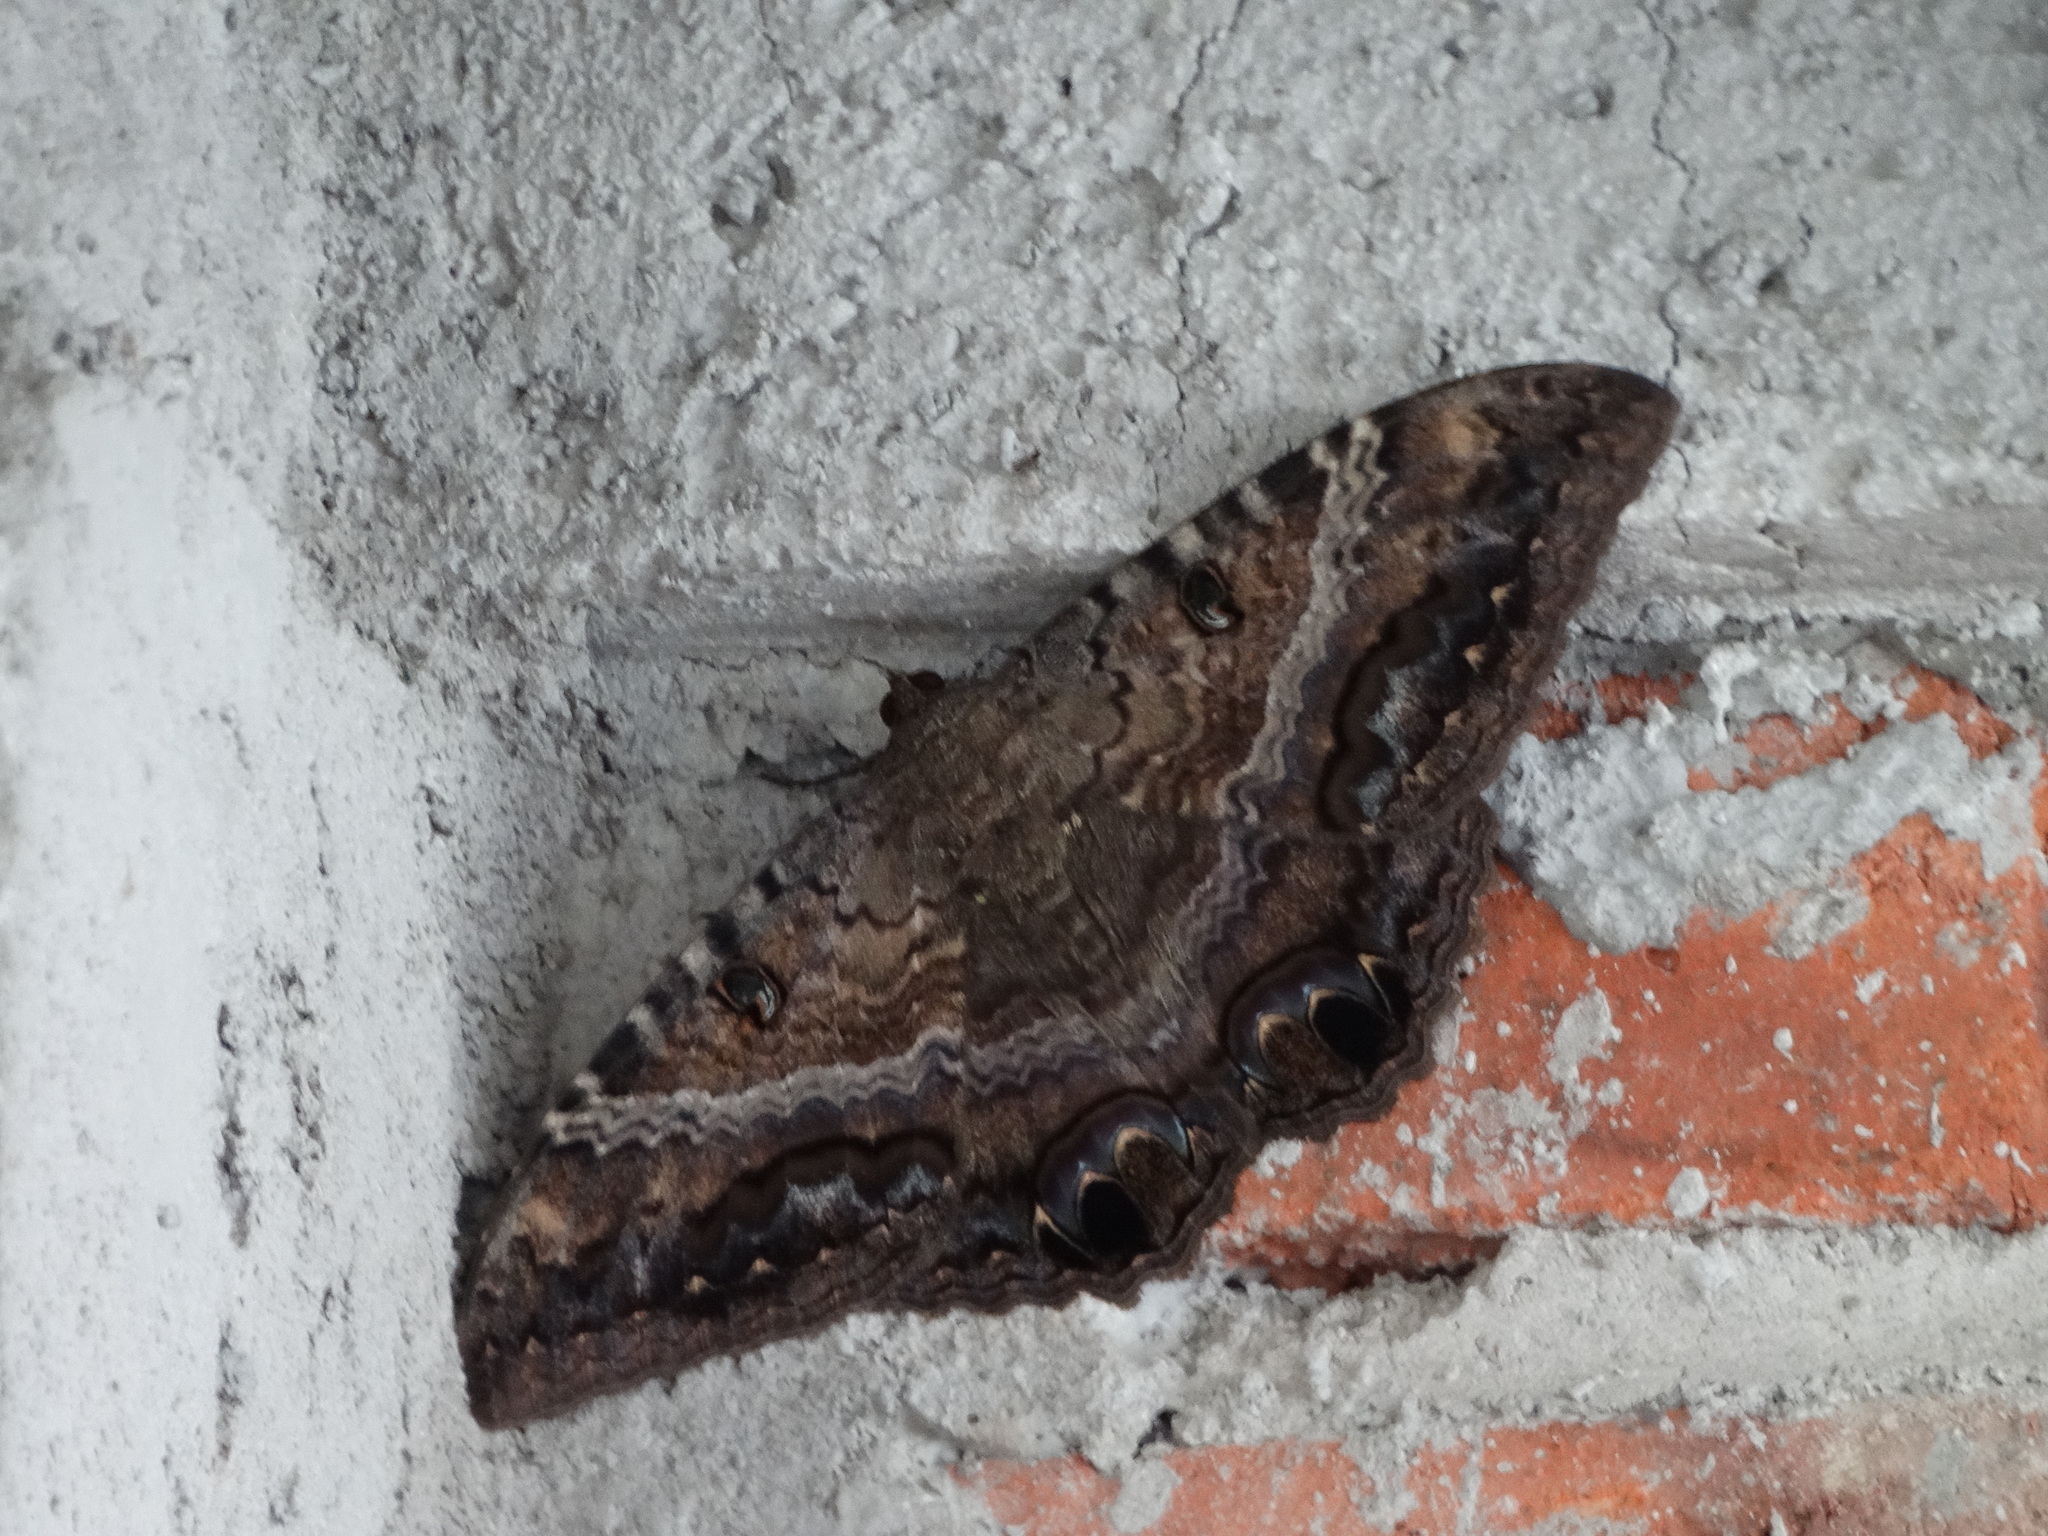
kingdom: Animalia
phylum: Arthropoda
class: Insecta
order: Lepidoptera
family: Erebidae
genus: Ascalapha
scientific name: Ascalapha odorata
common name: Black witch
